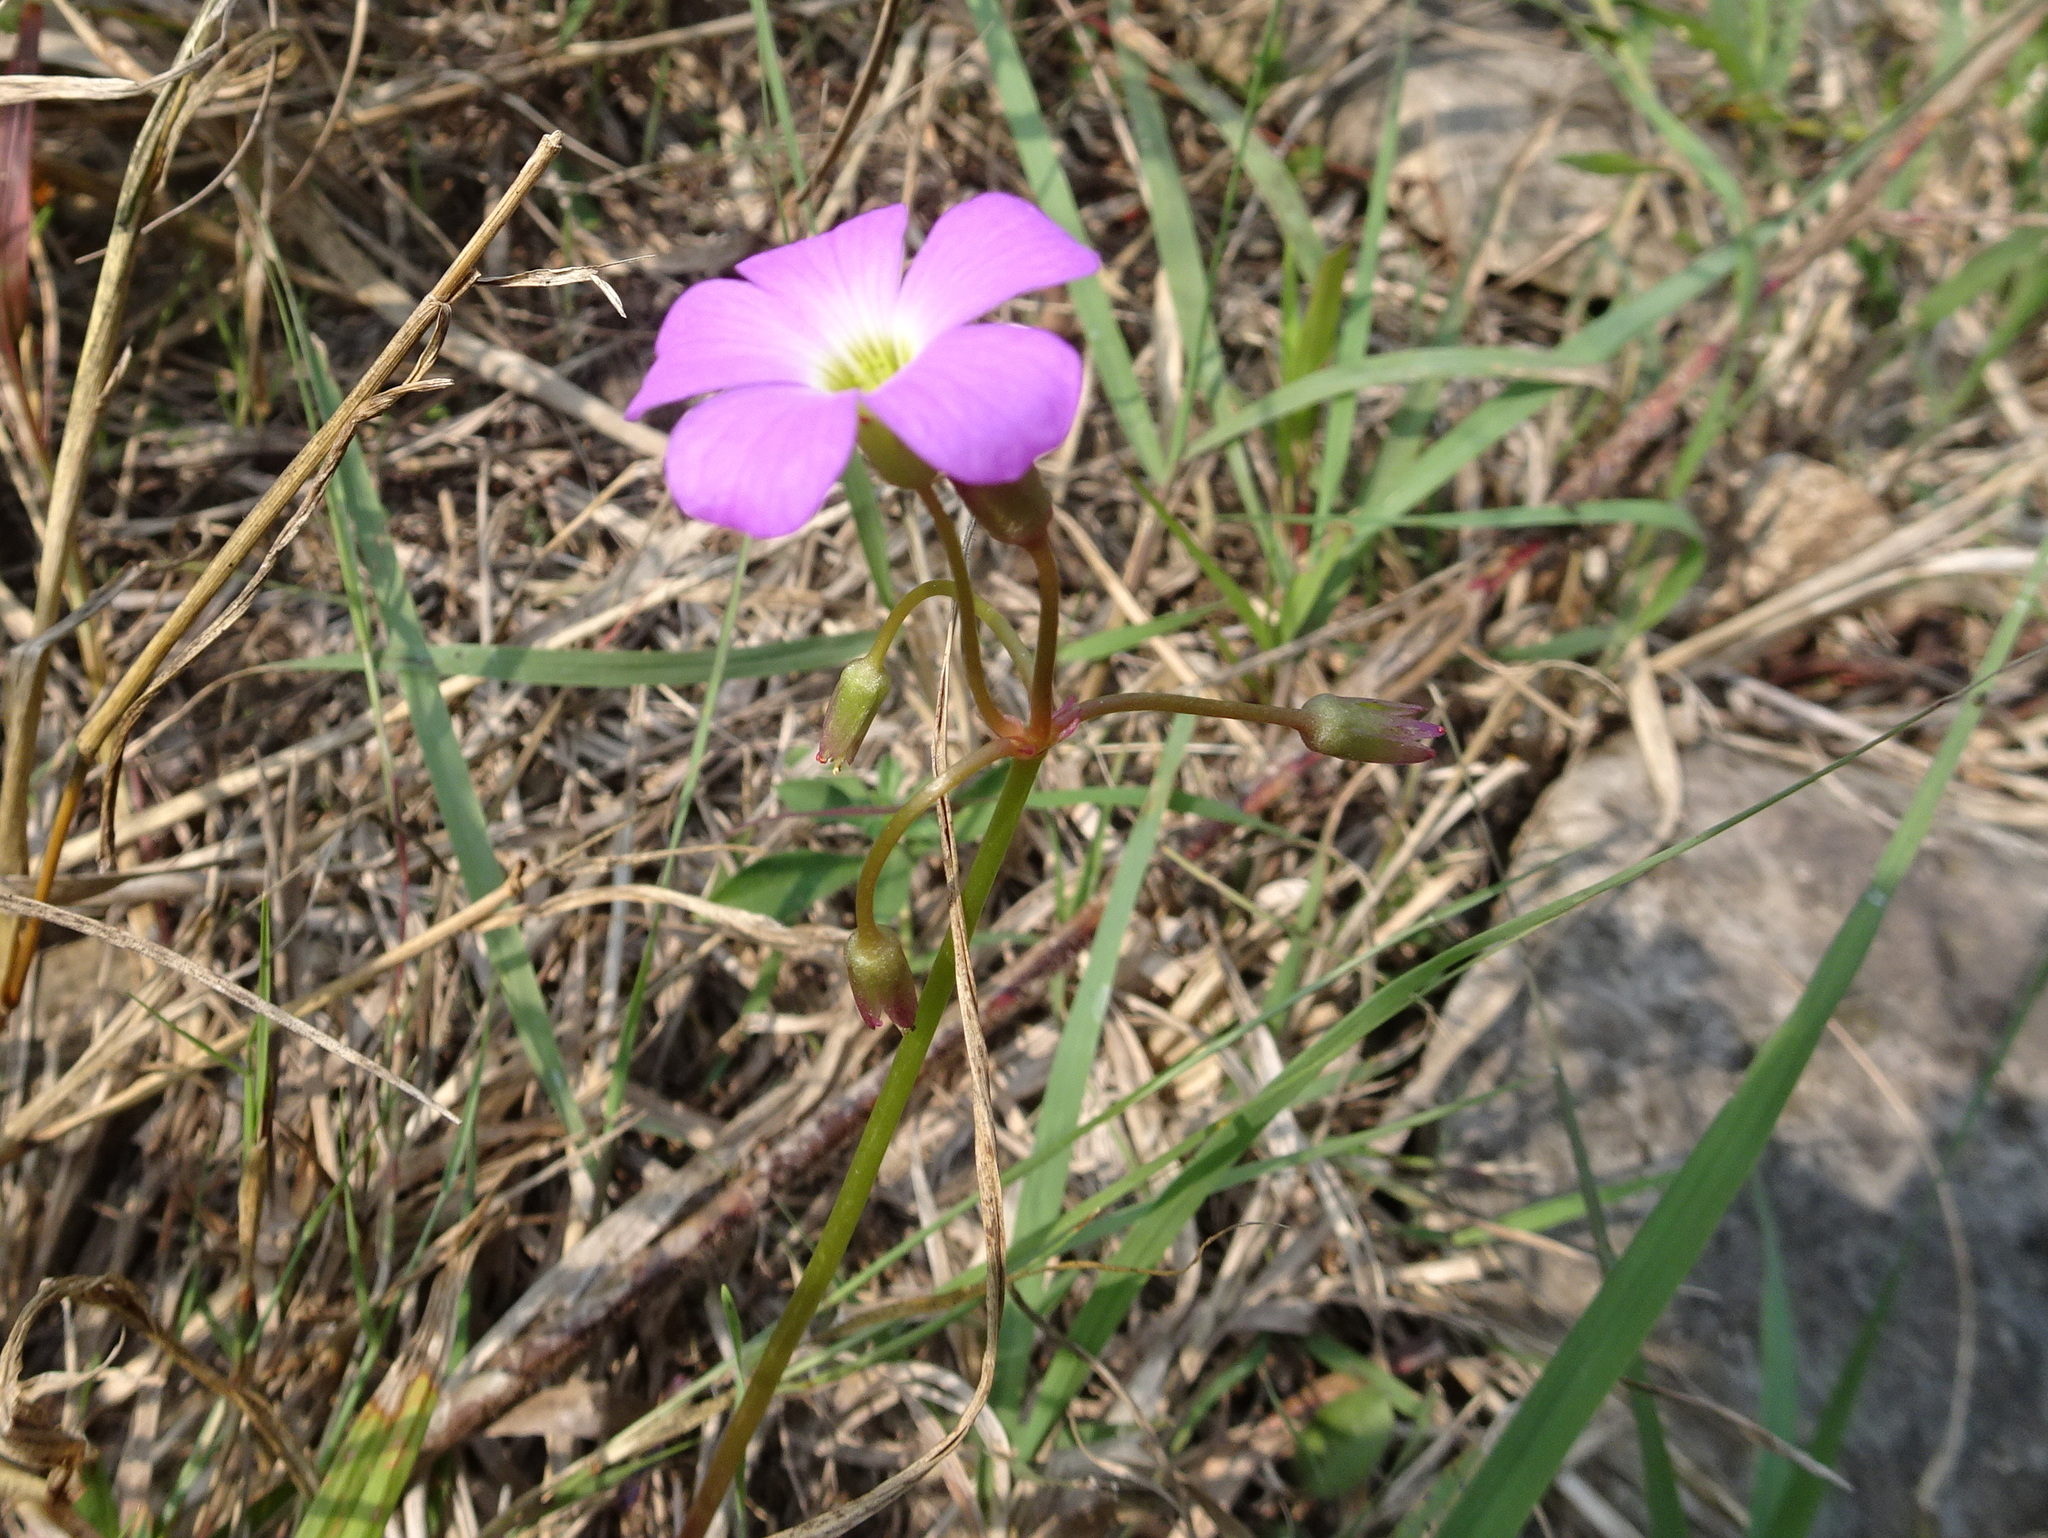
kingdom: Plantae
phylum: Tracheophyta
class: Magnoliopsida
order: Oxalidales
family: Oxalidaceae
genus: Oxalis
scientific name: Oxalis violacea
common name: Violet wood-sorrel
